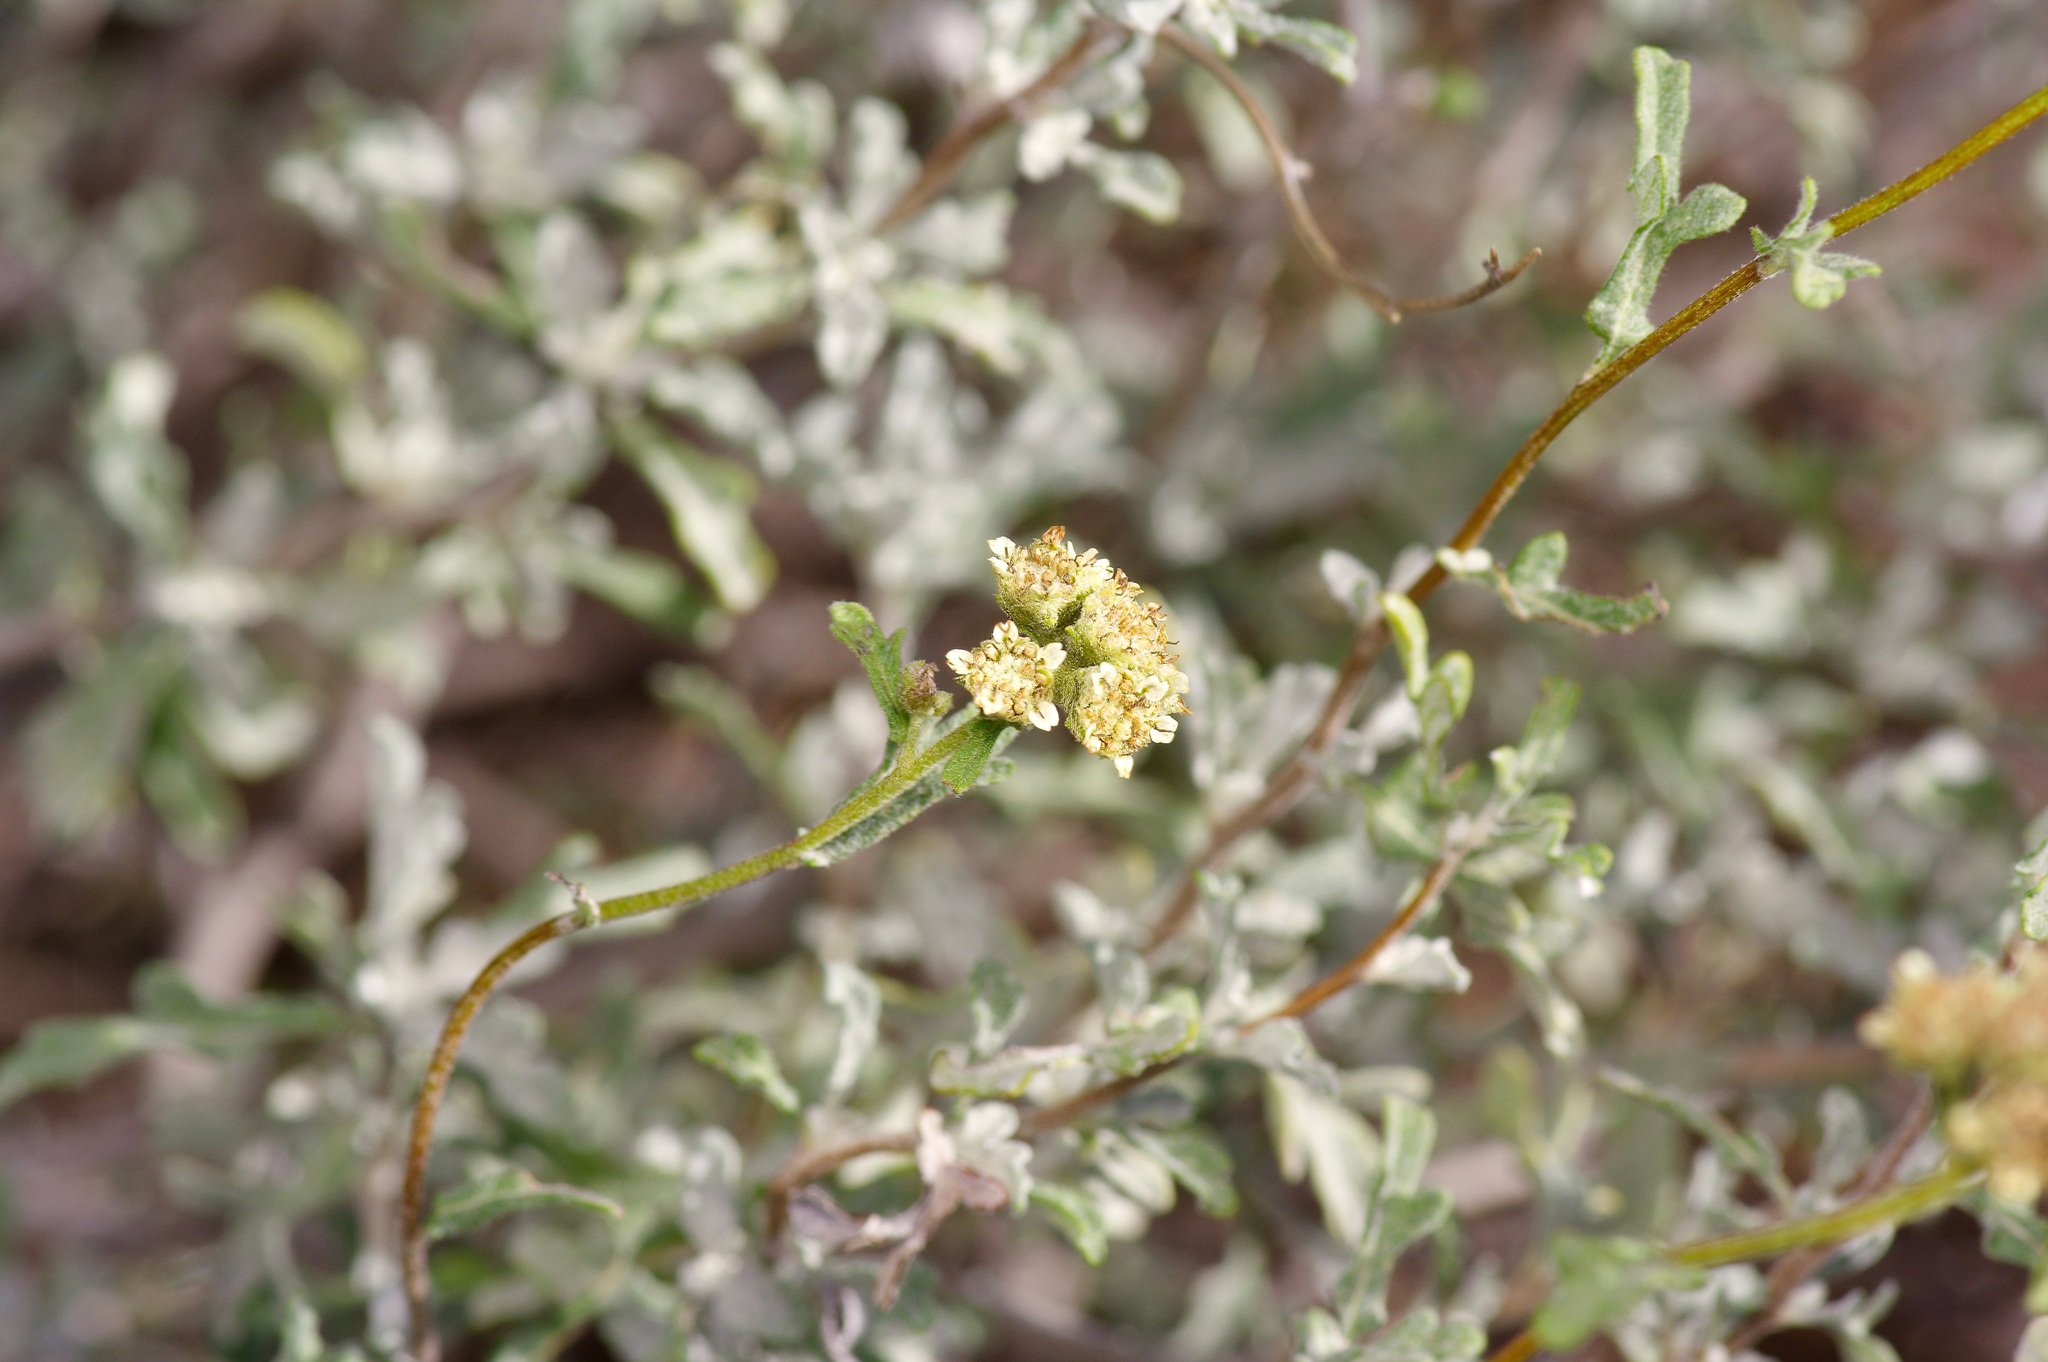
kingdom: Plantae
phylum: Tracheophyta
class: Magnoliopsida
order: Asterales
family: Asteraceae
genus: Parthenium
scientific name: Parthenium incanum
